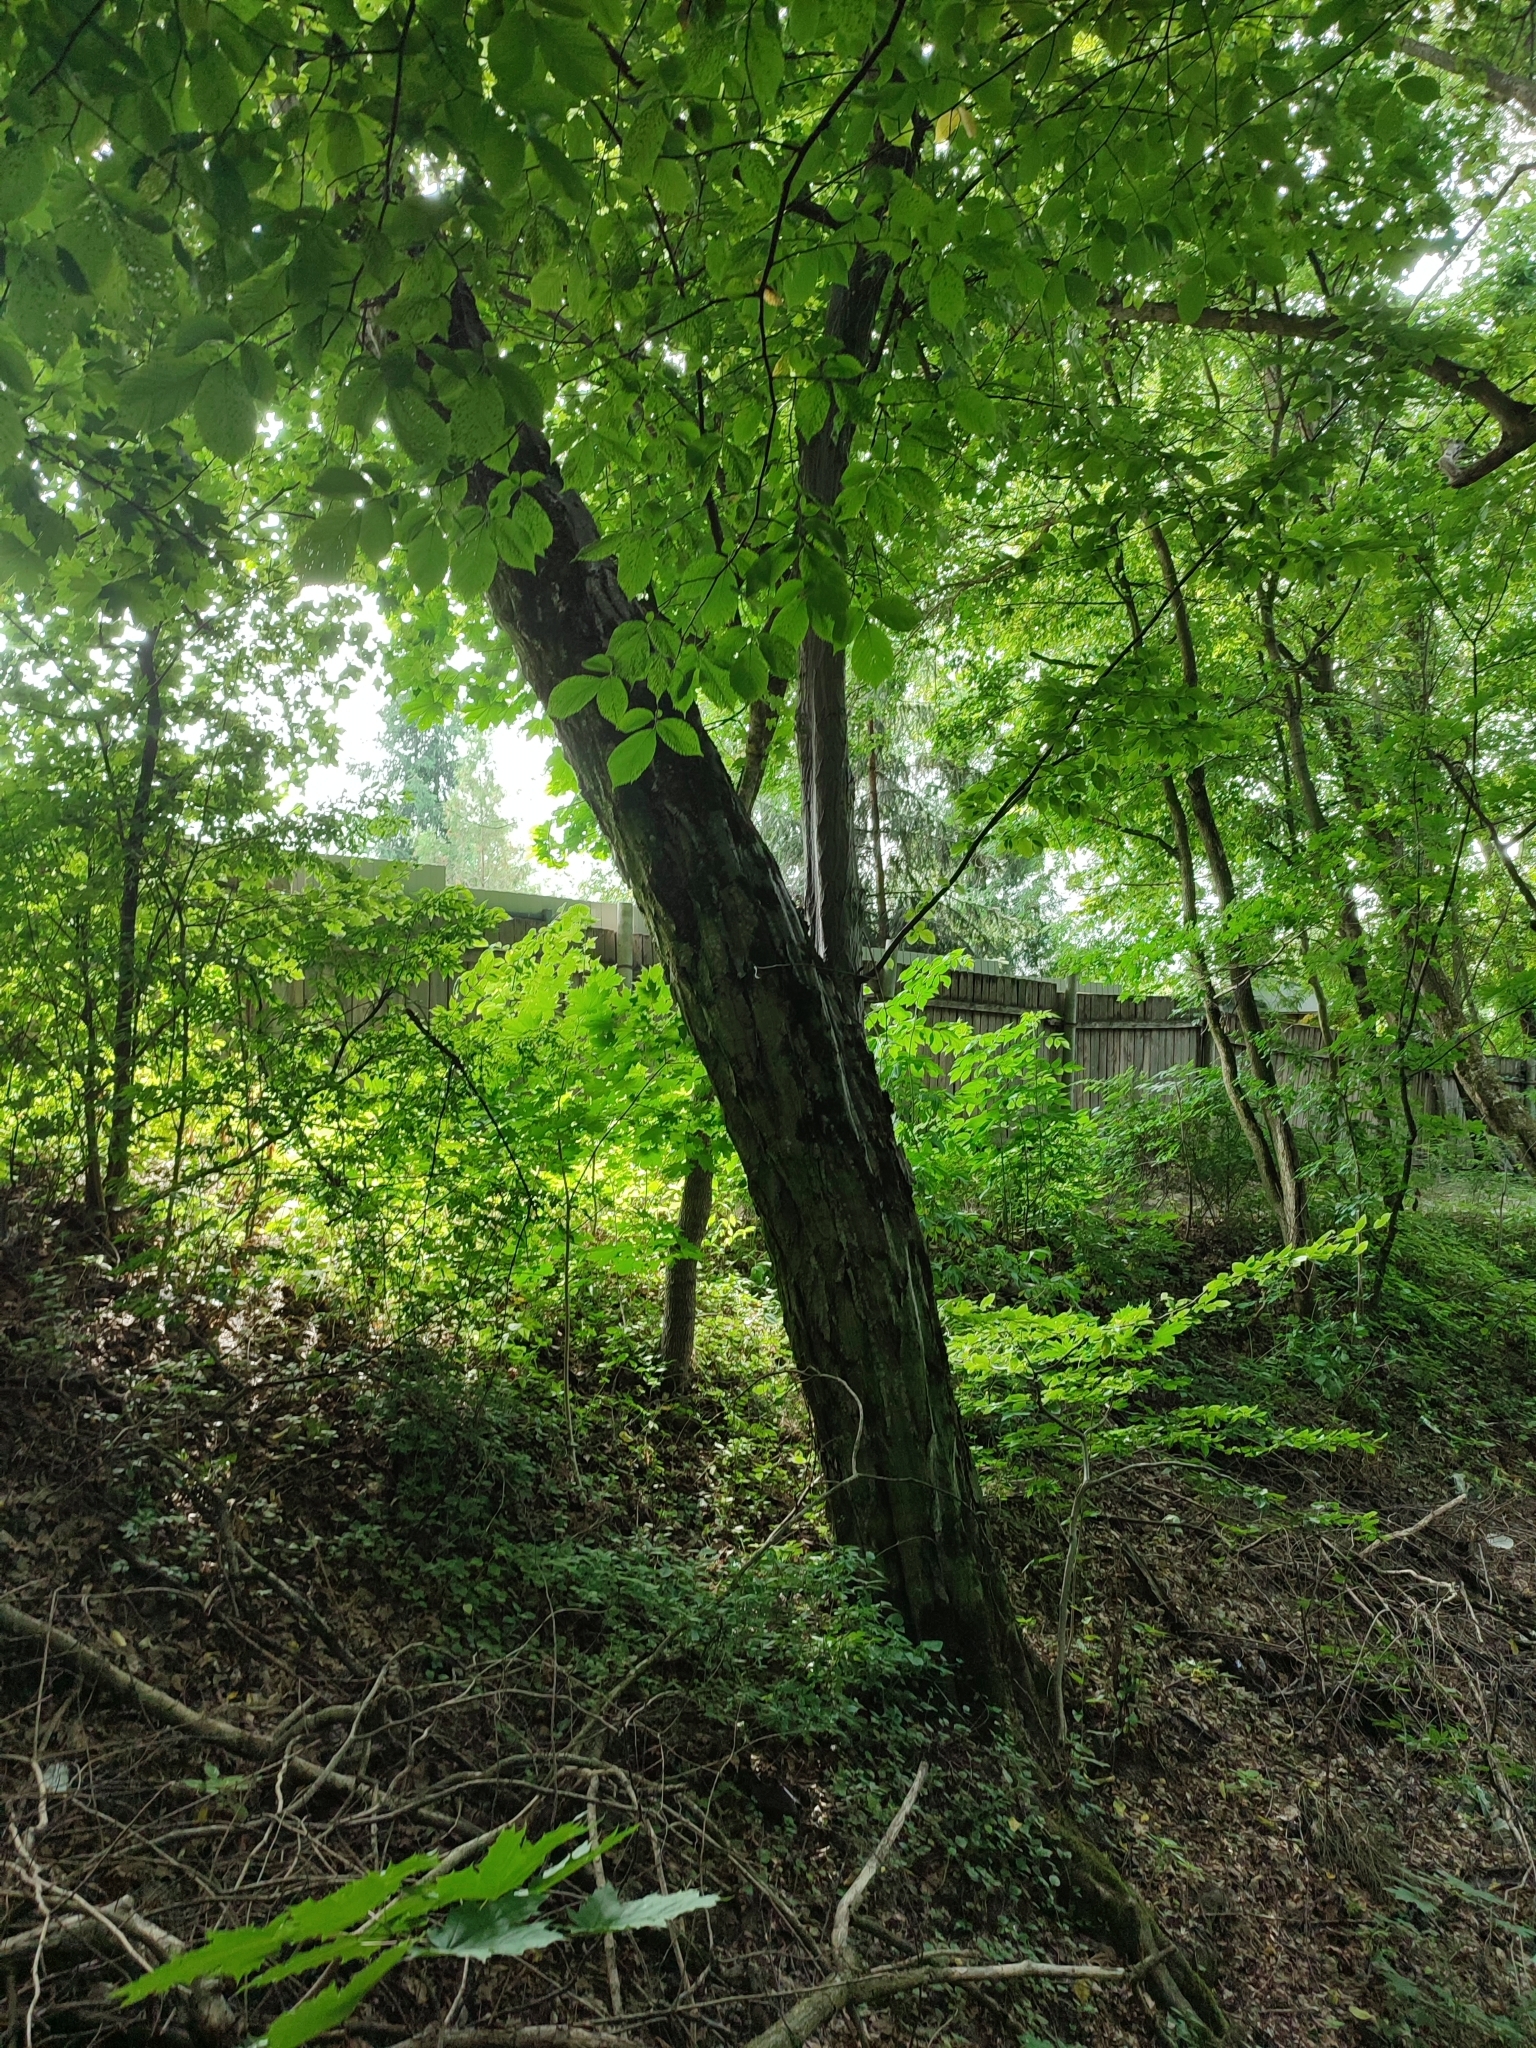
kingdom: Plantae
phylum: Tracheophyta
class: Magnoliopsida
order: Fagales
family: Betulaceae
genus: Carpinus
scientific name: Carpinus betulus
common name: Hornbeam
